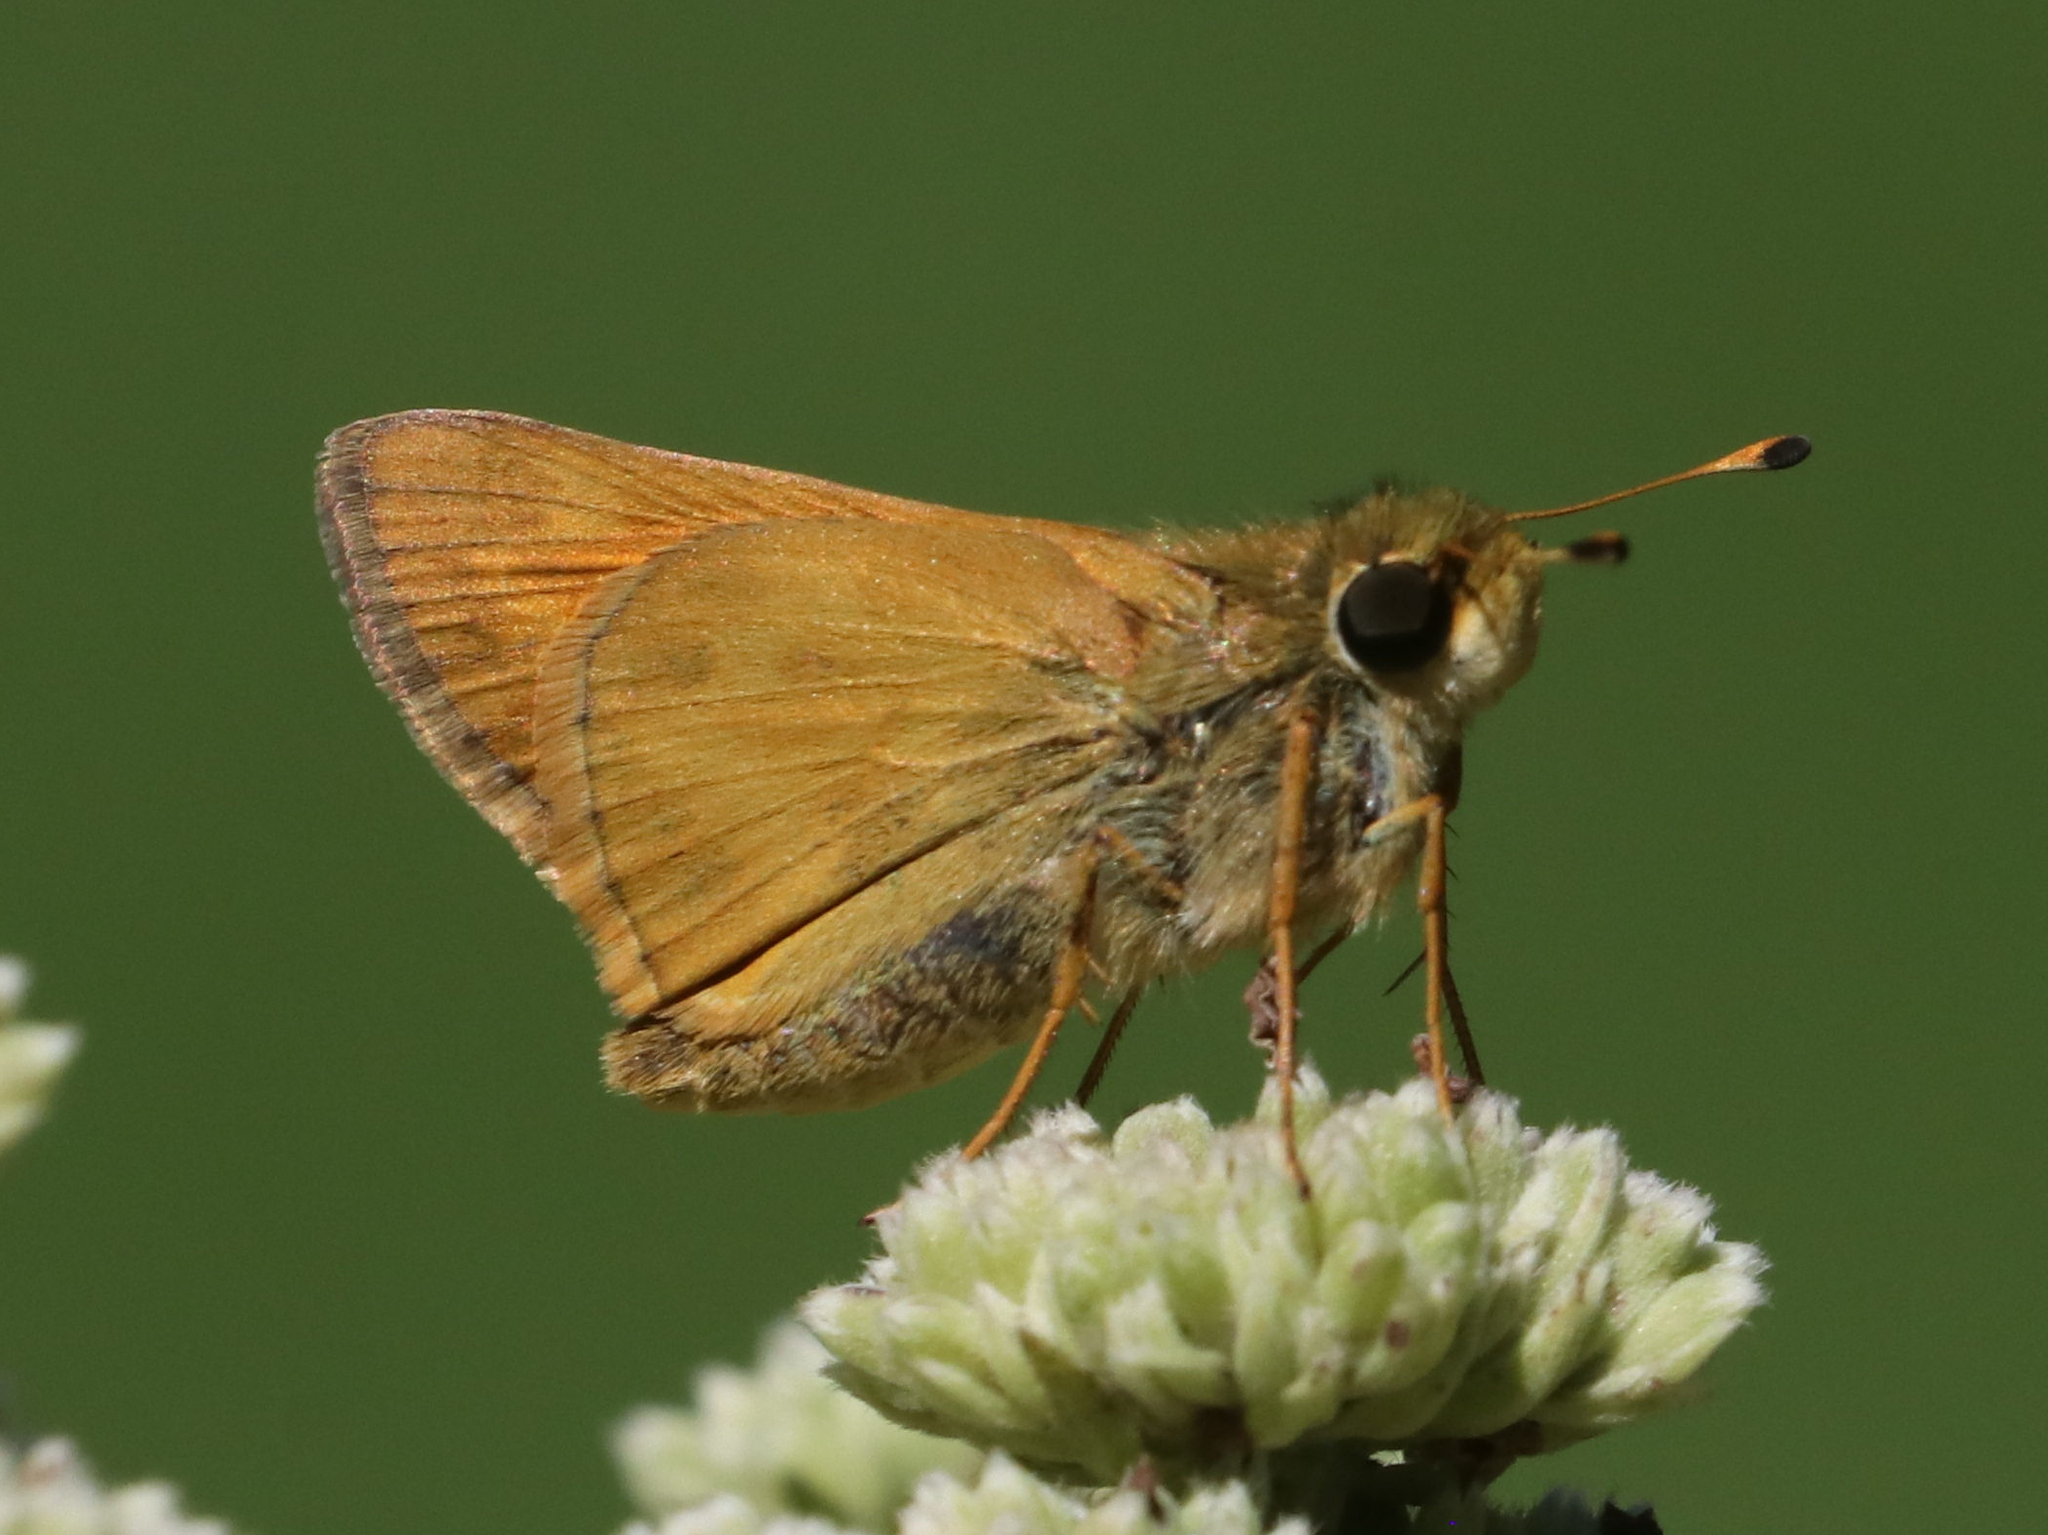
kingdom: Animalia
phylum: Arthropoda
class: Insecta
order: Lepidoptera
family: Hesperiidae
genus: Atalopedes
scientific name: Atalopedes
